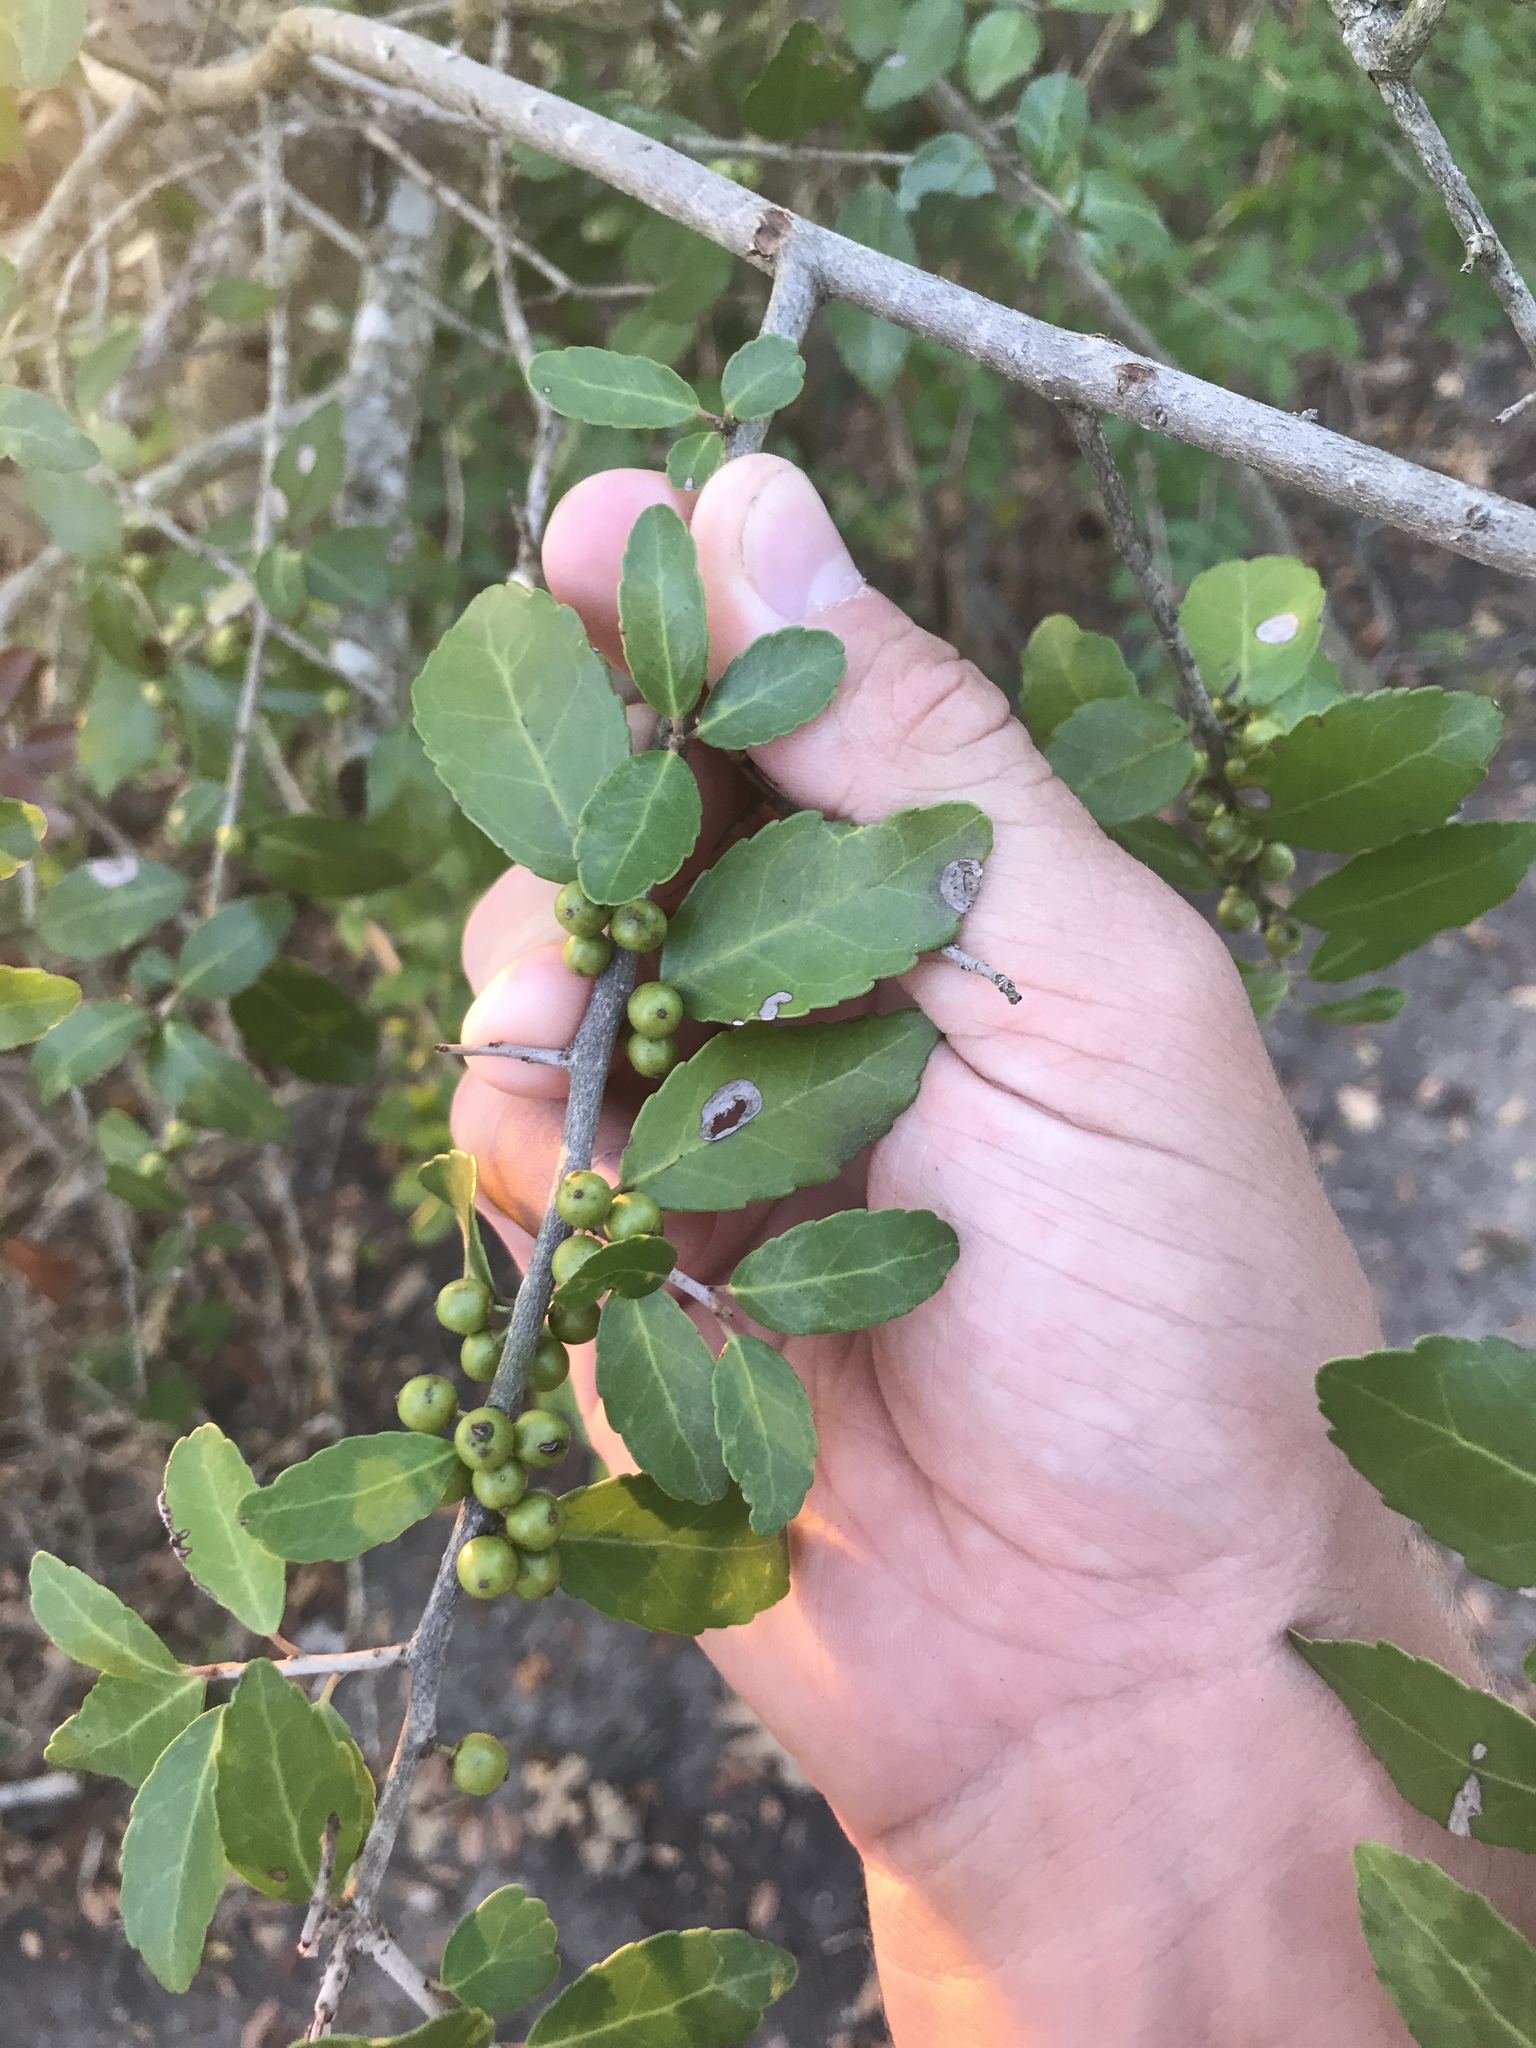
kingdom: Plantae
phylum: Tracheophyta
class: Magnoliopsida
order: Aquifoliales
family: Aquifoliaceae
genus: Ilex
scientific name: Ilex vomitoria
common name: Yaupon holly
